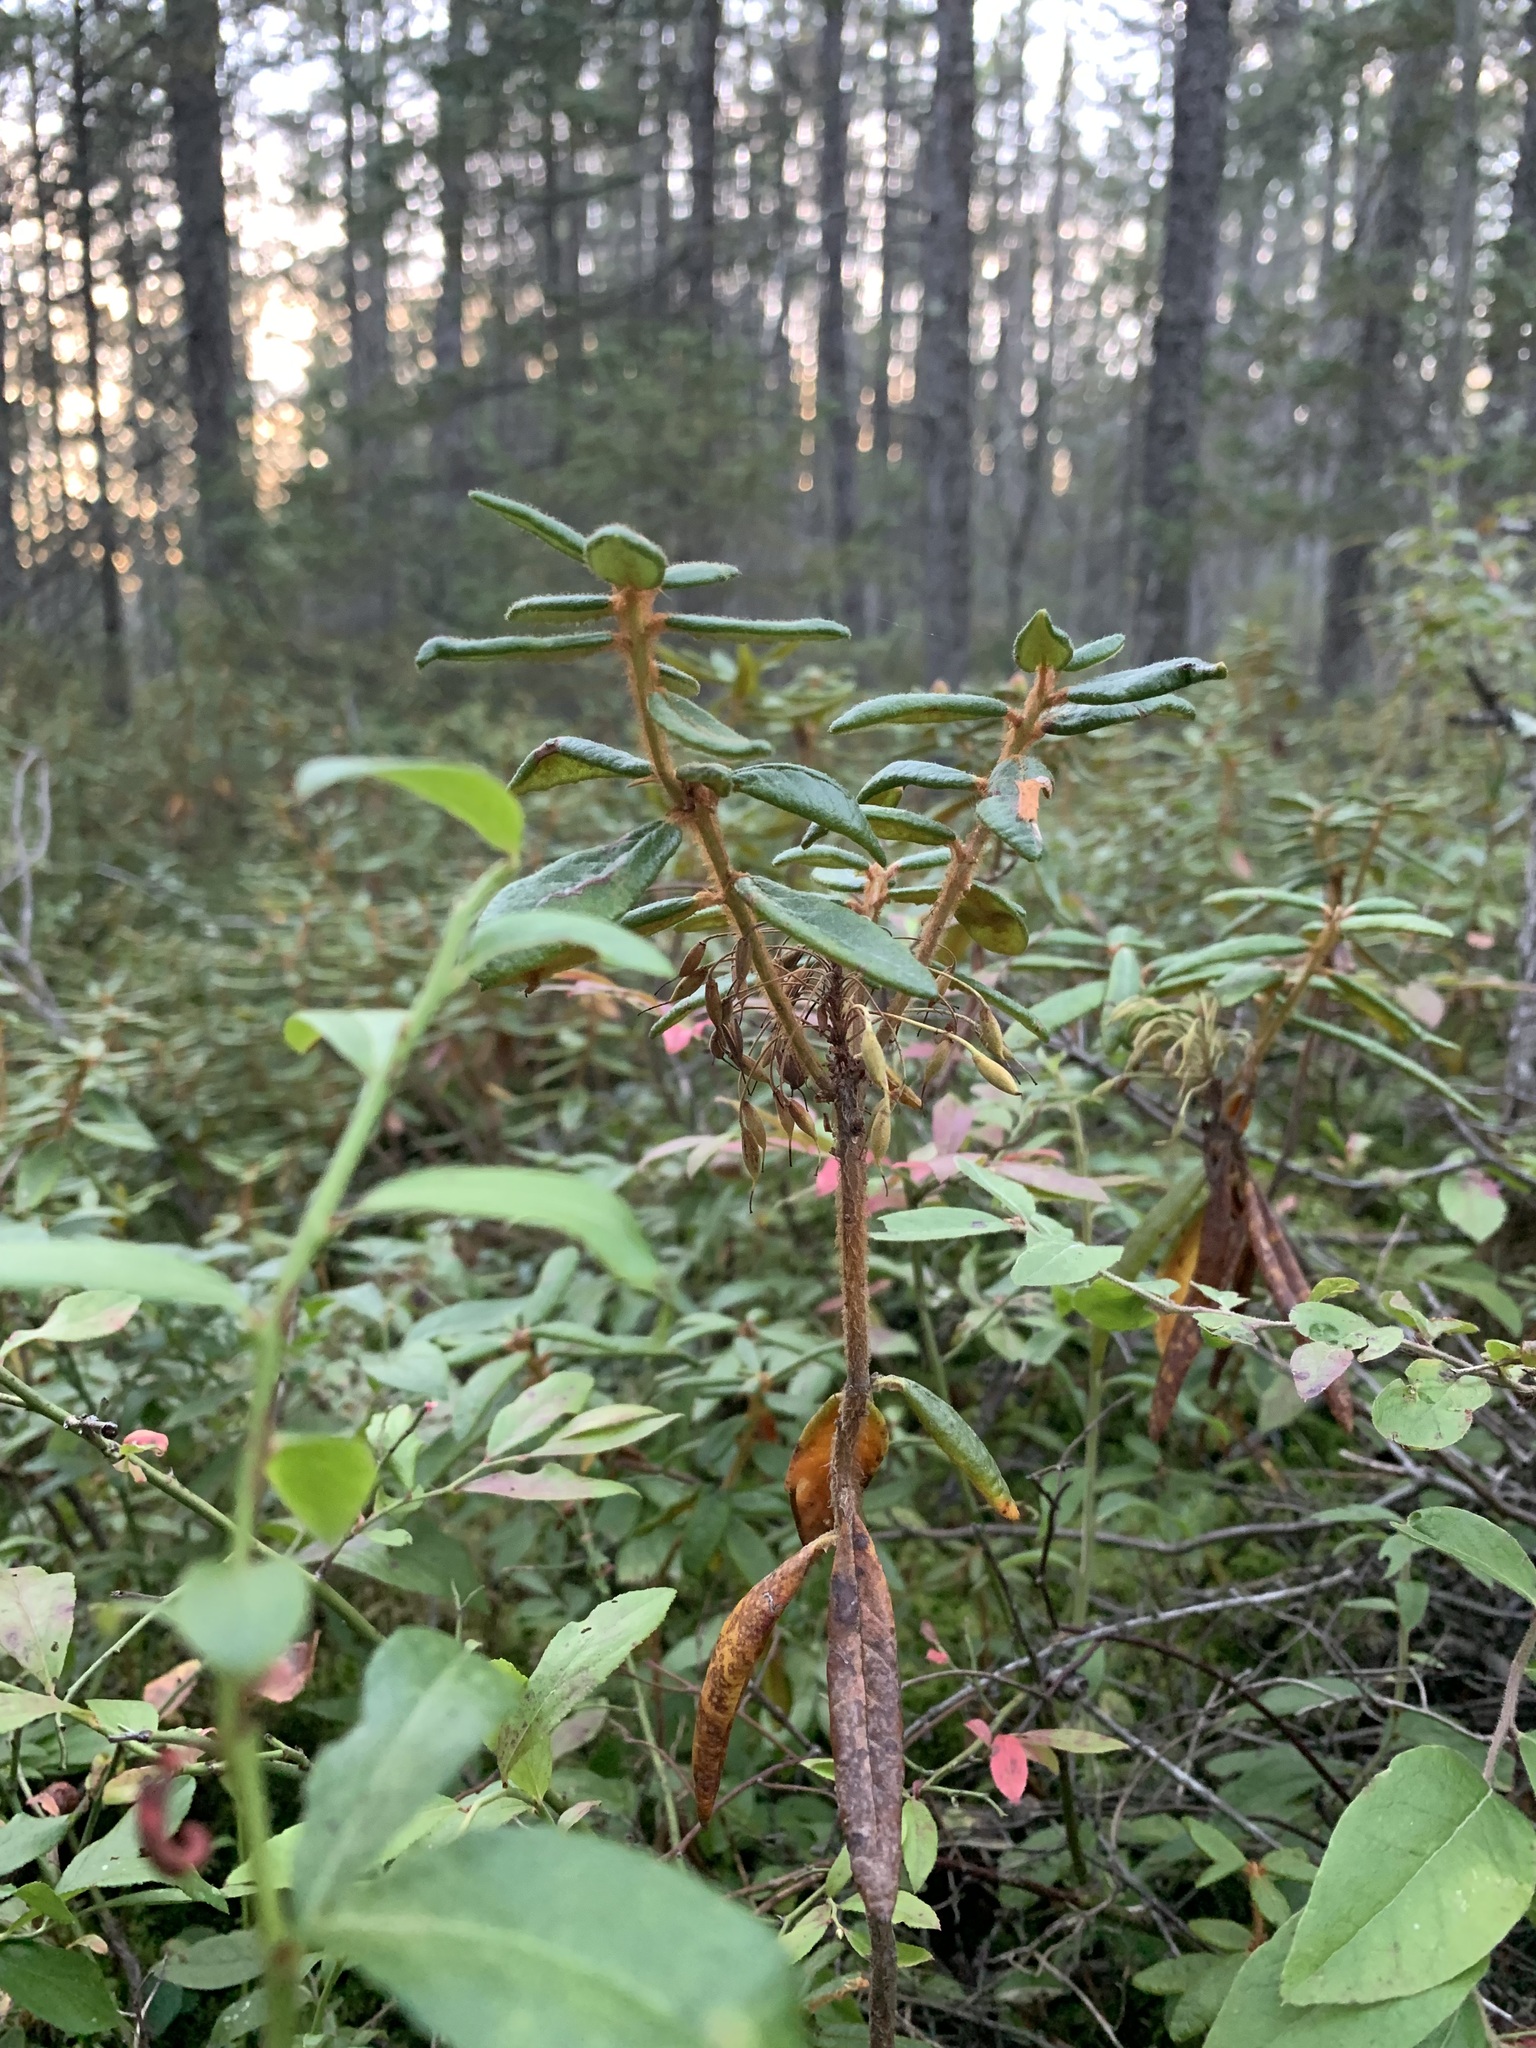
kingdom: Plantae
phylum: Tracheophyta
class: Magnoliopsida
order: Ericales
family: Ericaceae
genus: Rhododendron
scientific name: Rhododendron groenlandicum
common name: Bog labrador tea
